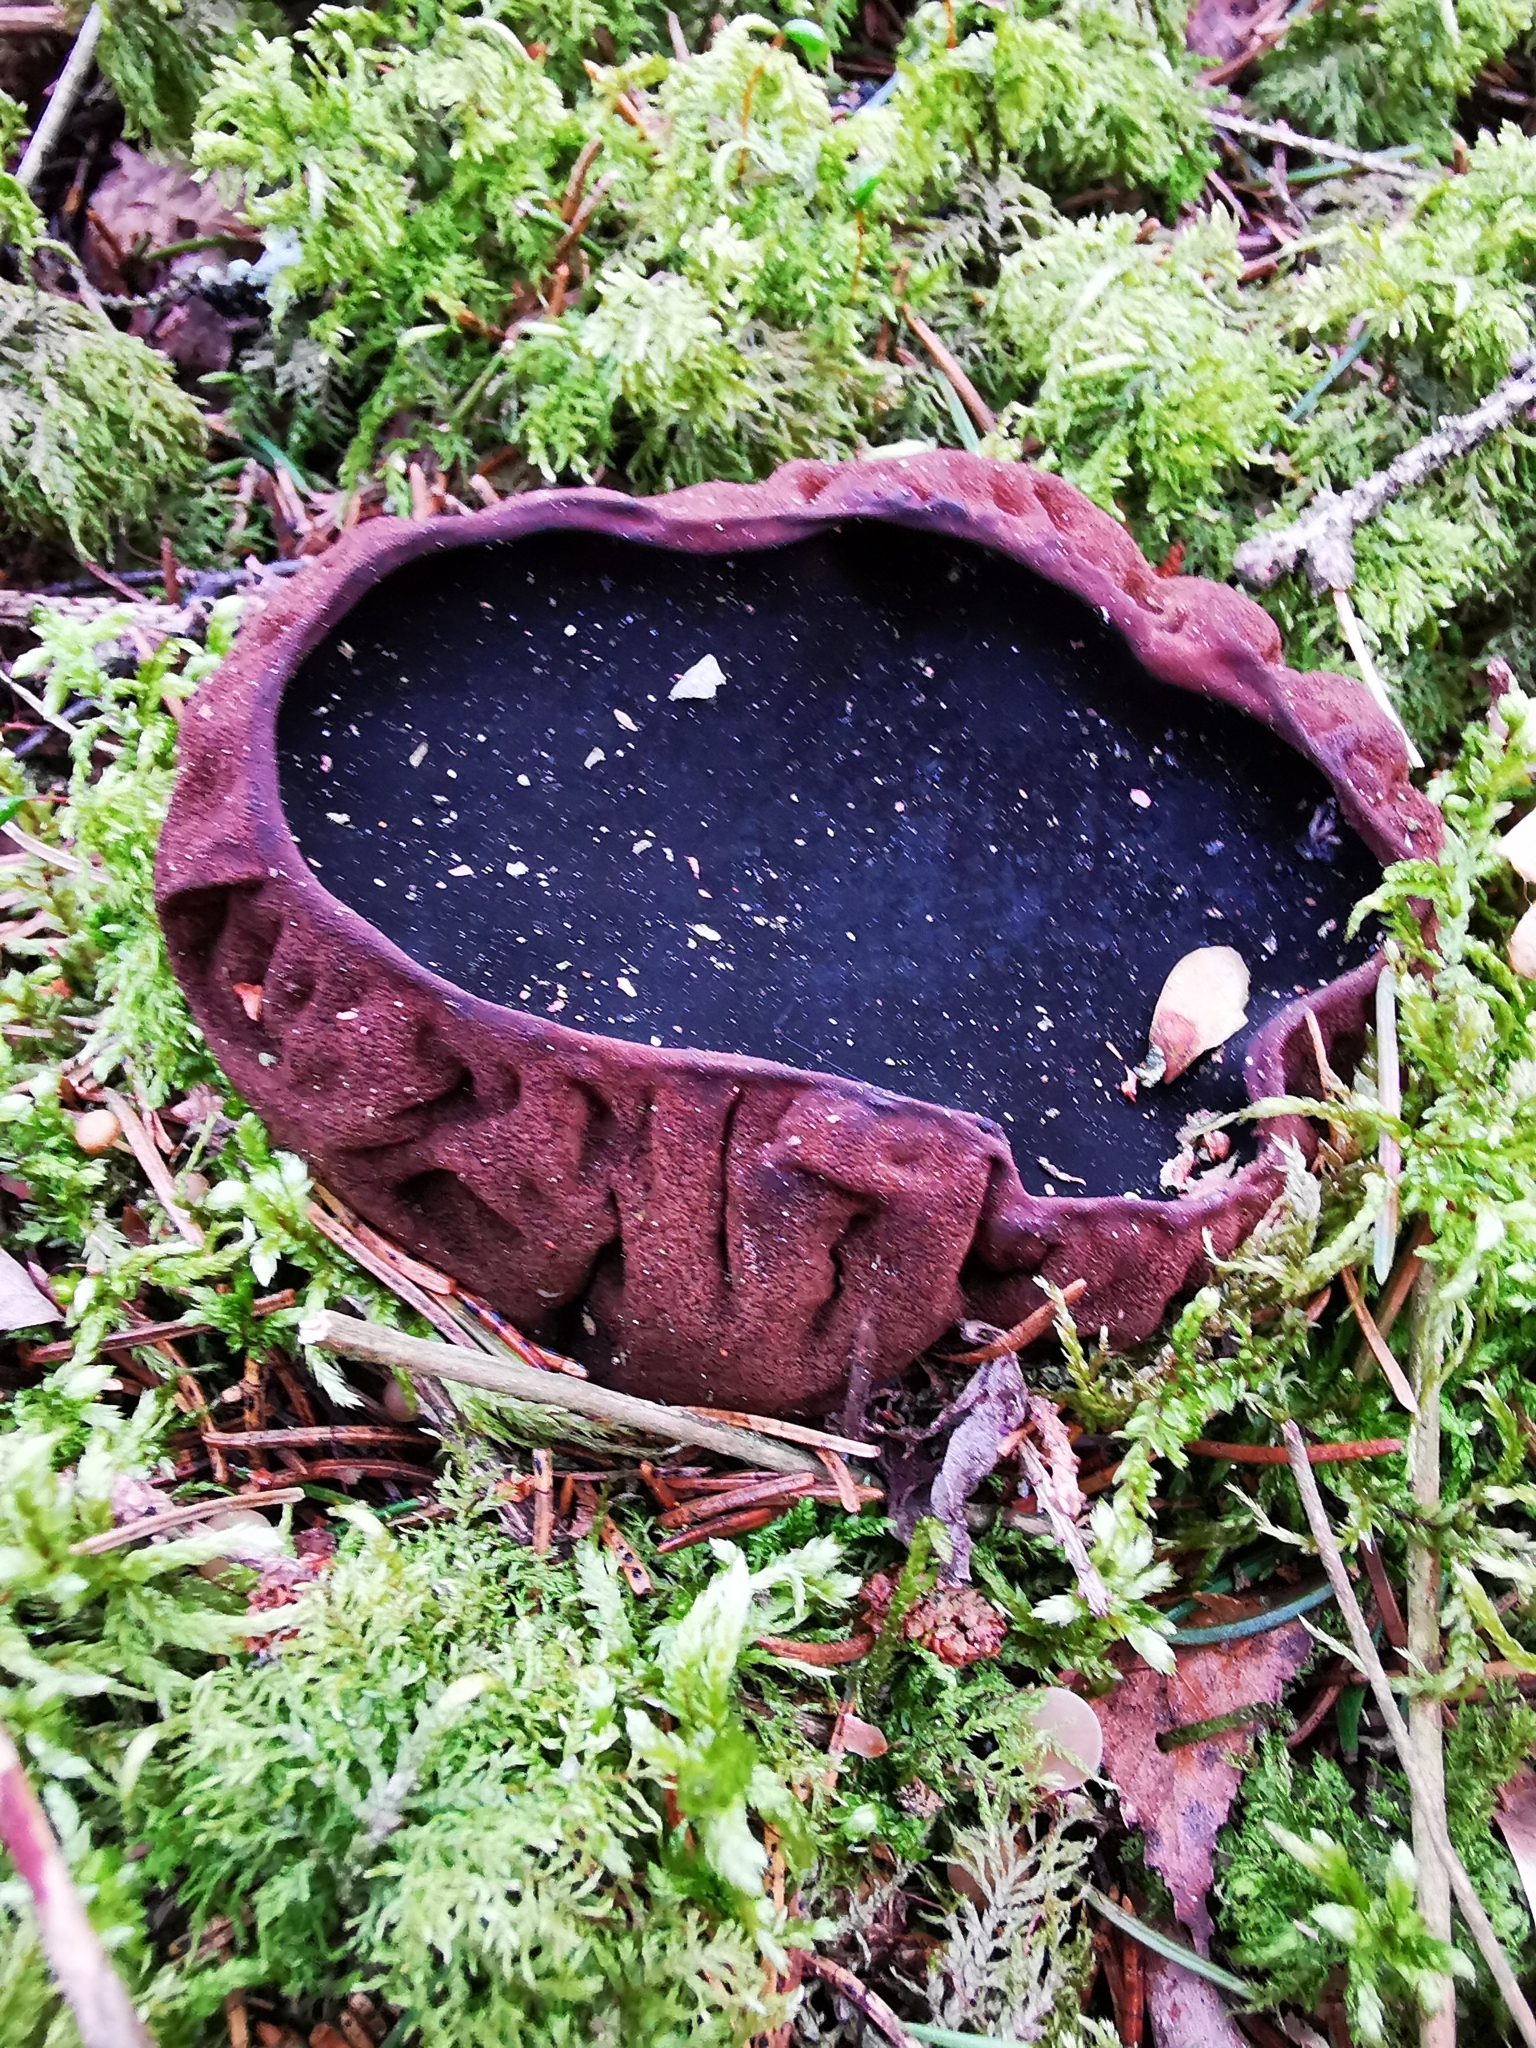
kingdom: Fungi
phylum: Ascomycota
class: Pezizomycetes
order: Pezizales
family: Sarcosomataceae
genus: Sarcosoma
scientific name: Sarcosoma globosum
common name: Charred-pancake cup
